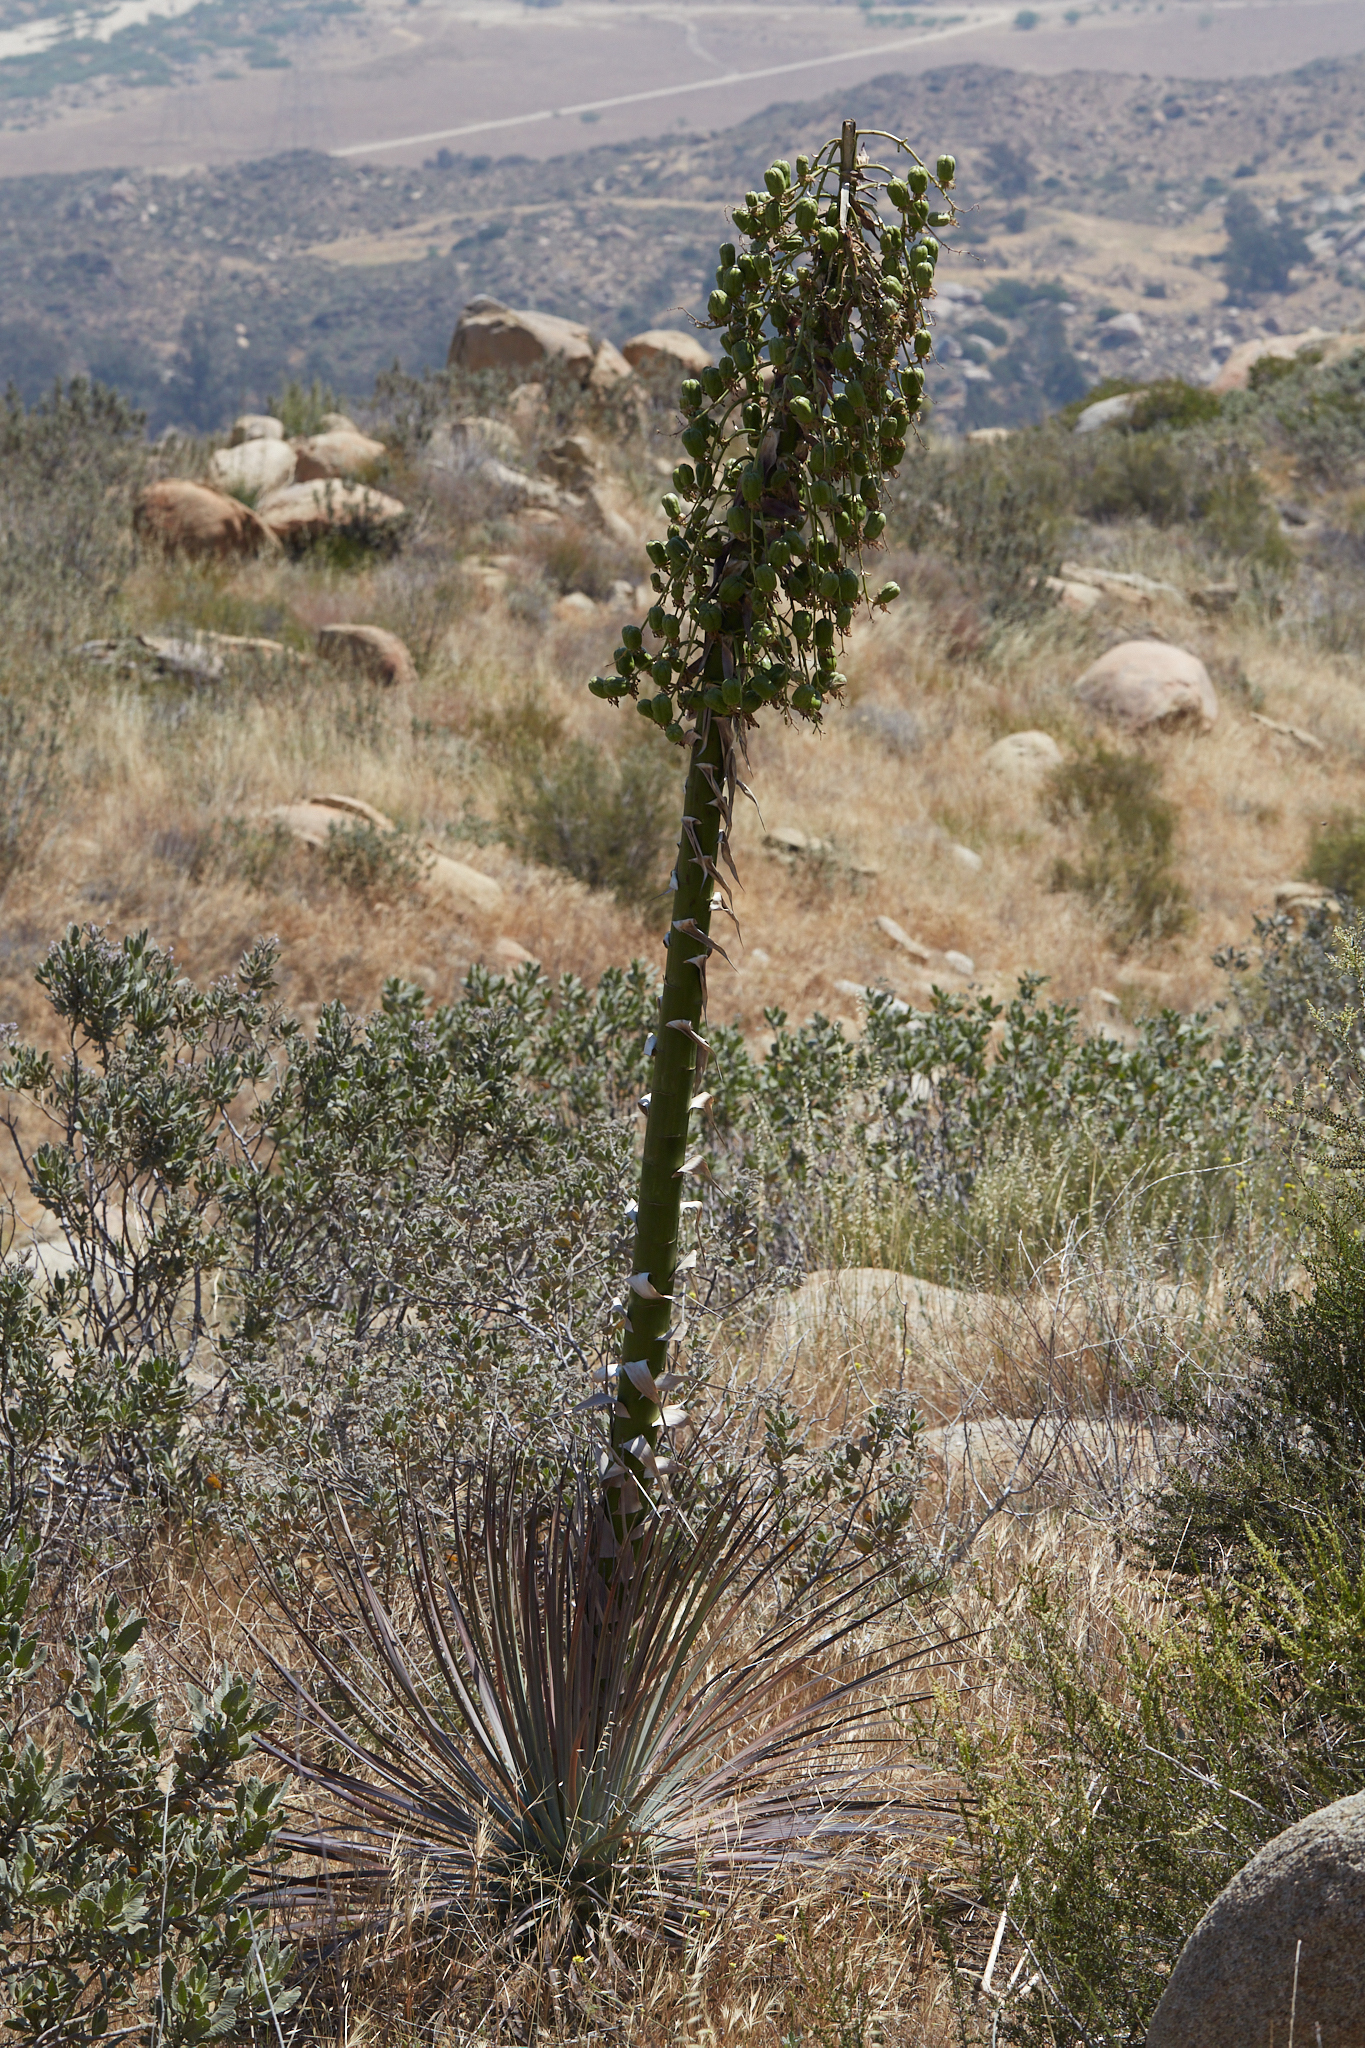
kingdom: Plantae
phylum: Tracheophyta
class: Liliopsida
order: Asparagales
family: Asparagaceae
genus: Hesperoyucca
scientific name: Hesperoyucca whipplei
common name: Our lord's-candle
